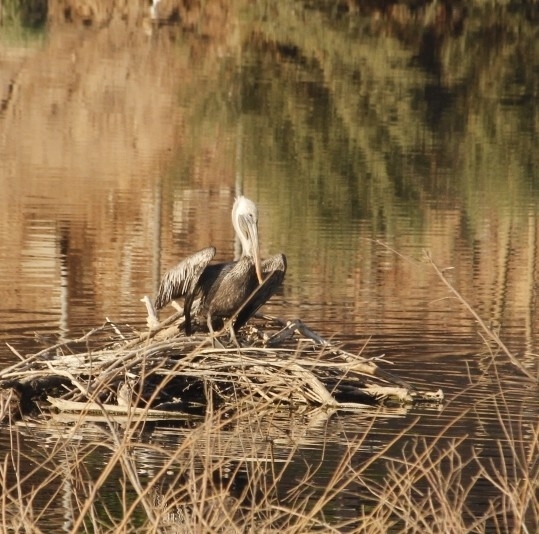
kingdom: Animalia
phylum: Chordata
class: Aves
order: Pelecaniformes
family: Pelecanidae
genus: Pelecanus
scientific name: Pelecanus occidentalis
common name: Brown pelican
